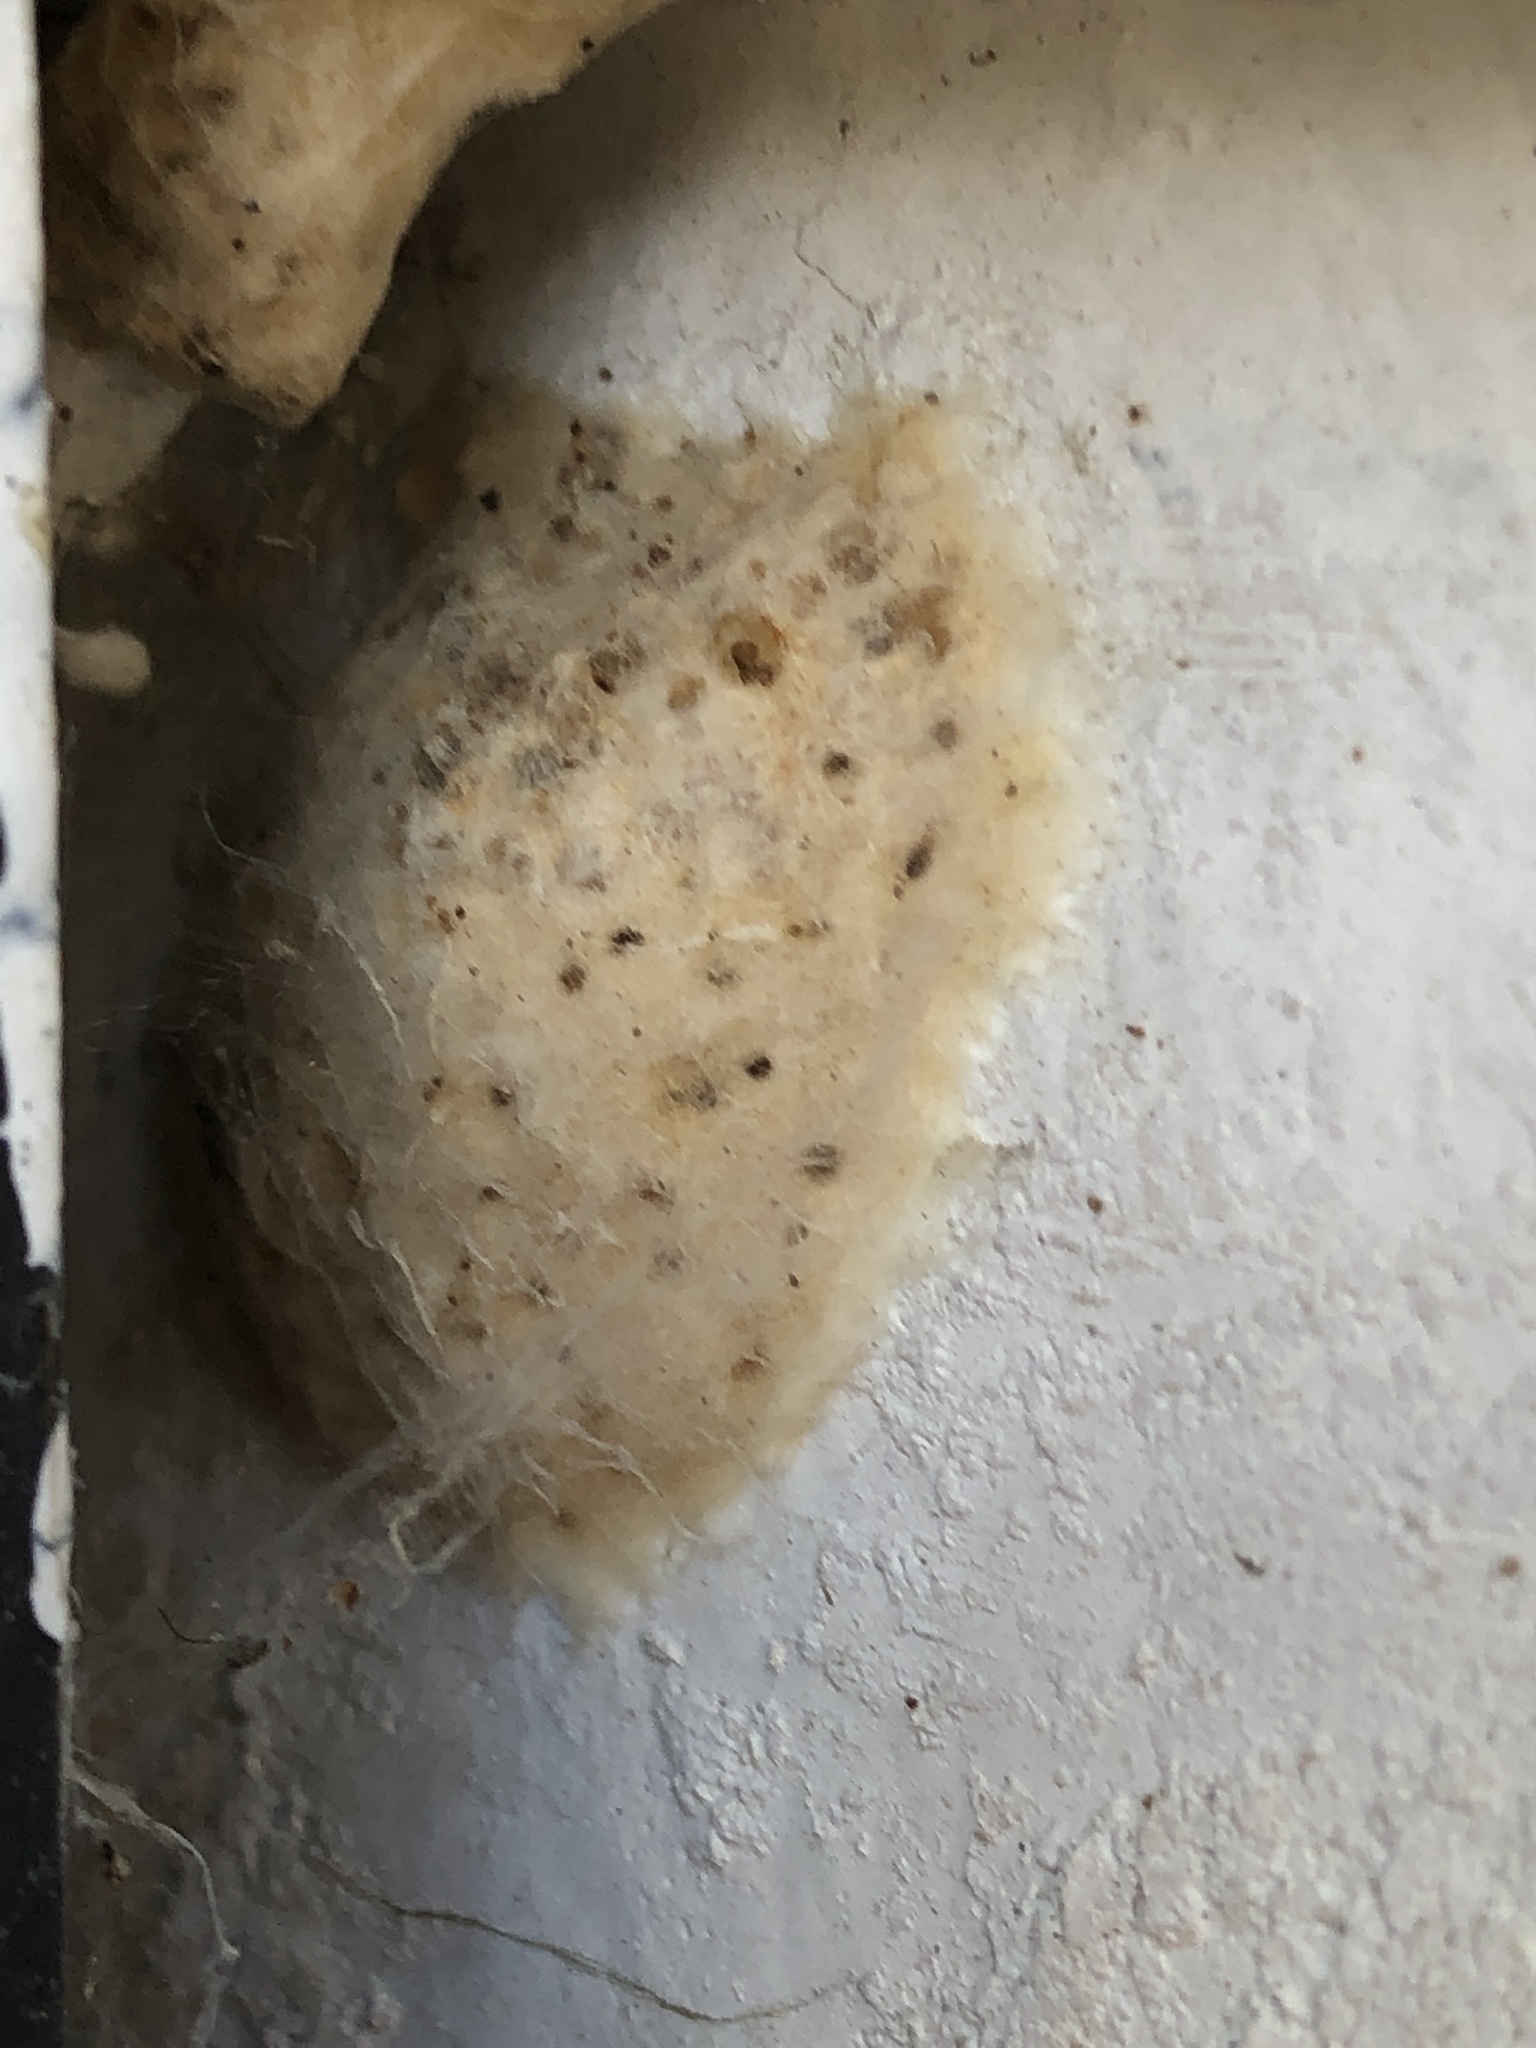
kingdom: Animalia
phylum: Arthropoda
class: Insecta
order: Lepidoptera
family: Erebidae
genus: Lymantria
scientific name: Lymantria dispar
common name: Gypsy moth
